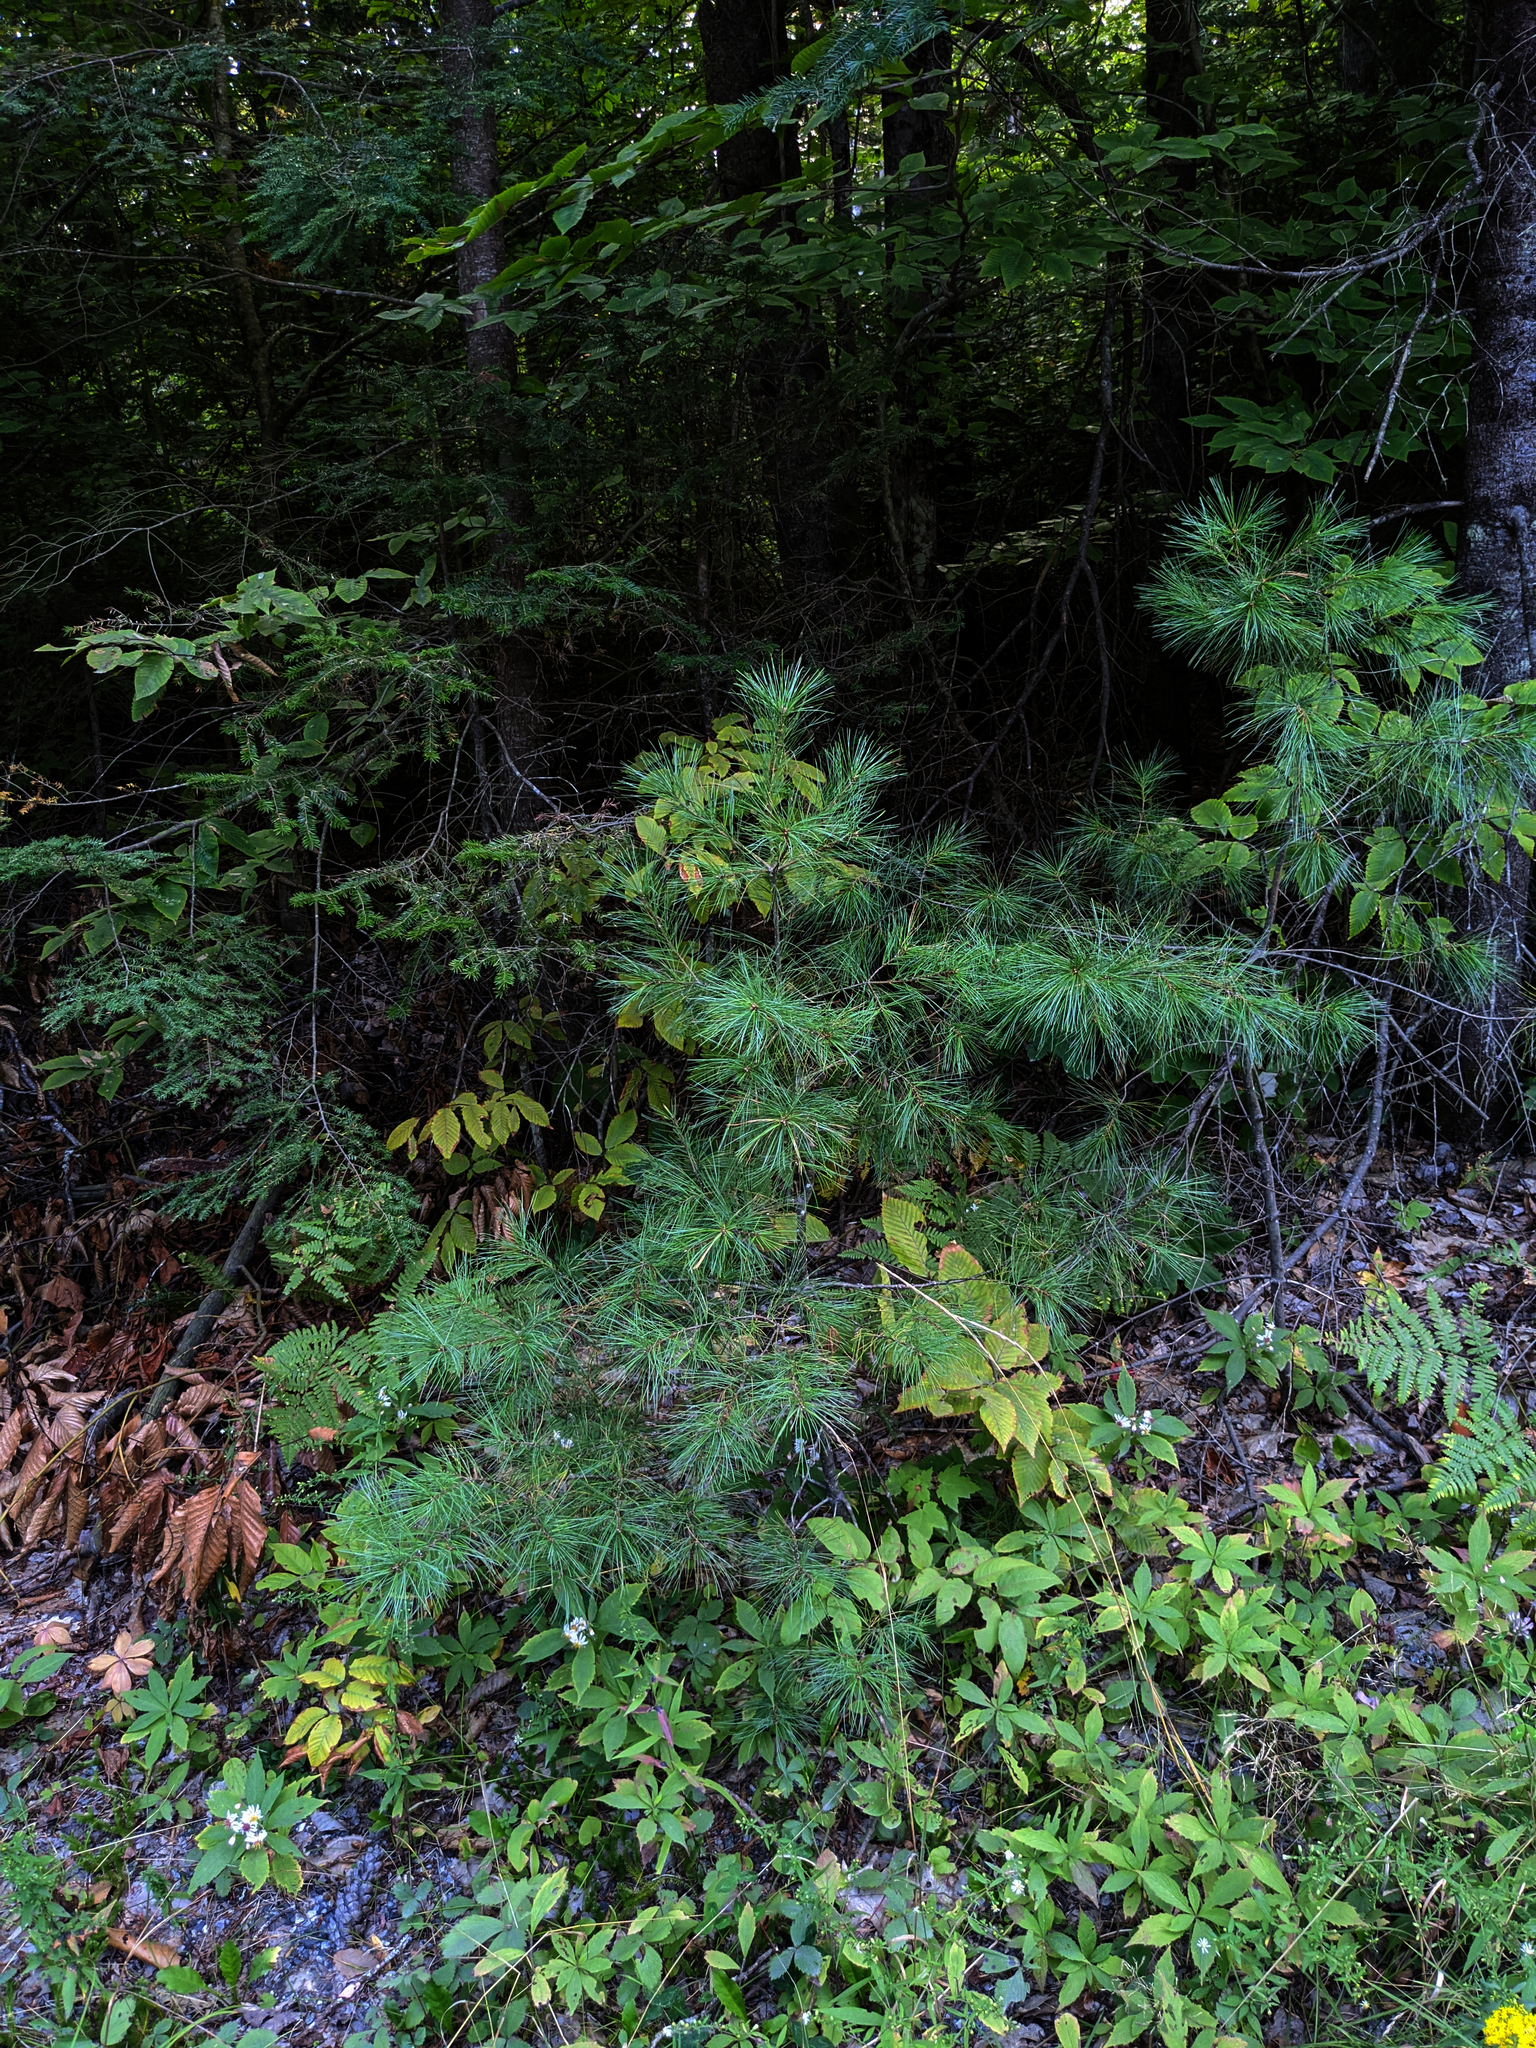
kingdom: Plantae
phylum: Tracheophyta
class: Pinopsida
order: Pinales
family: Pinaceae
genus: Pinus
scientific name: Pinus strobus
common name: Weymouth pine
